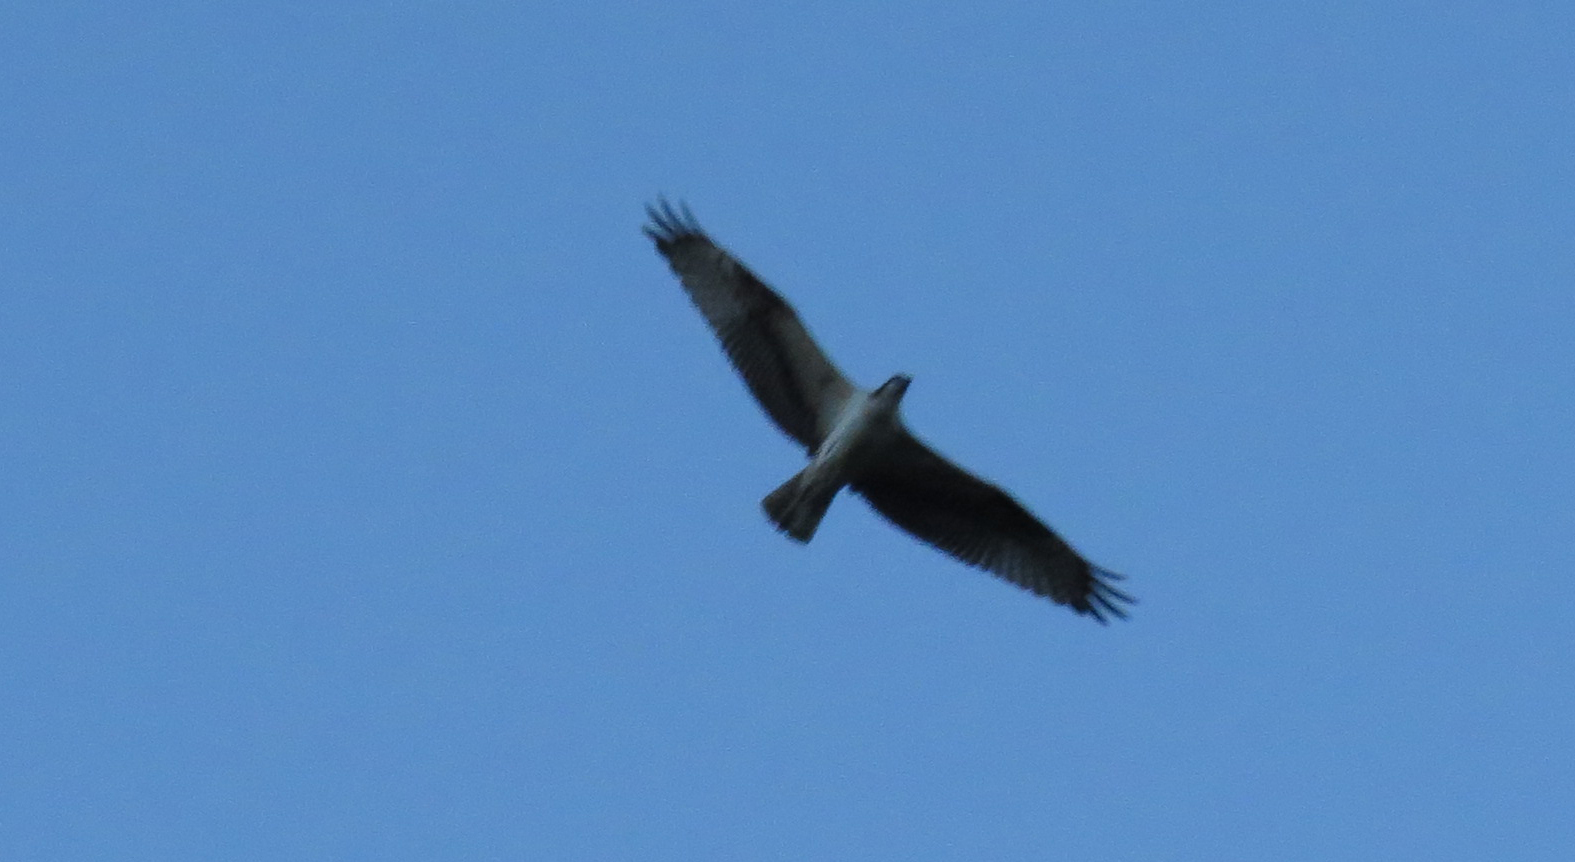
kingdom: Animalia
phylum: Chordata
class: Aves
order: Accipitriformes
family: Pandionidae
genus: Pandion
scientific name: Pandion haliaetus
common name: Osprey
